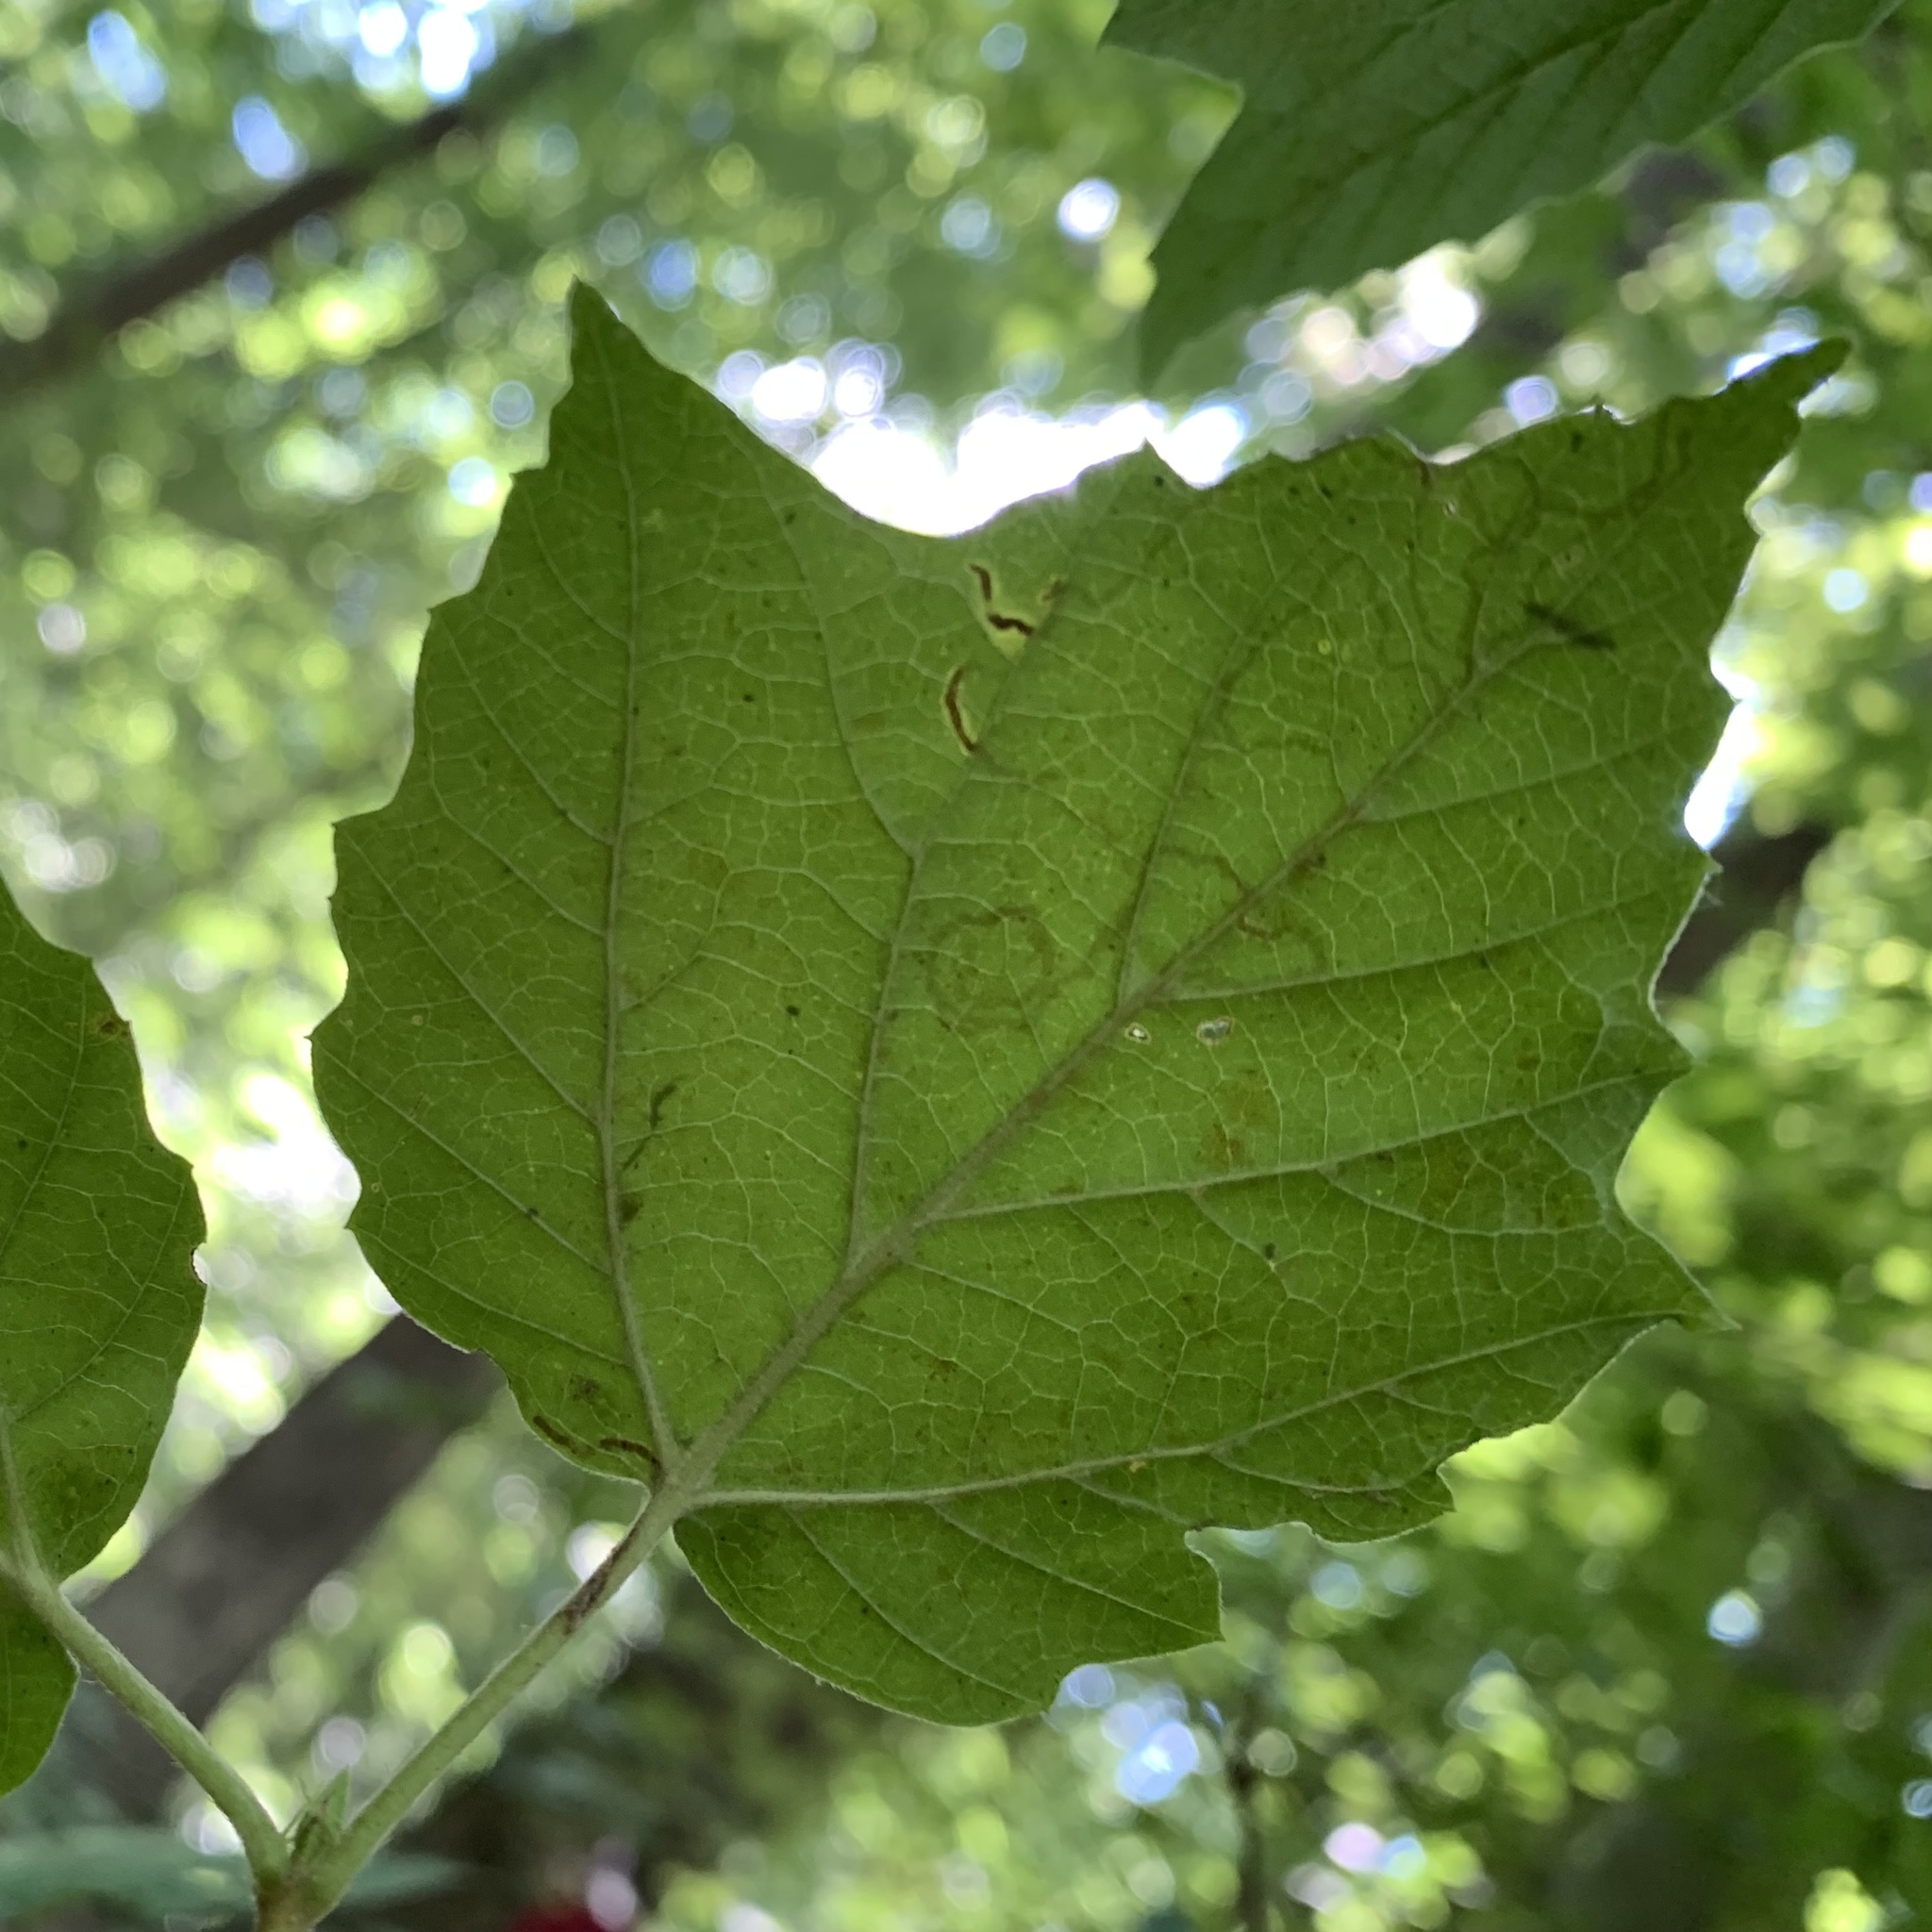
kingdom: Animalia
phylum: Arthropoda
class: Insecta
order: Lepidoptera
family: Gracillariidae
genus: Marmara
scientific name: Marmara viburnella
